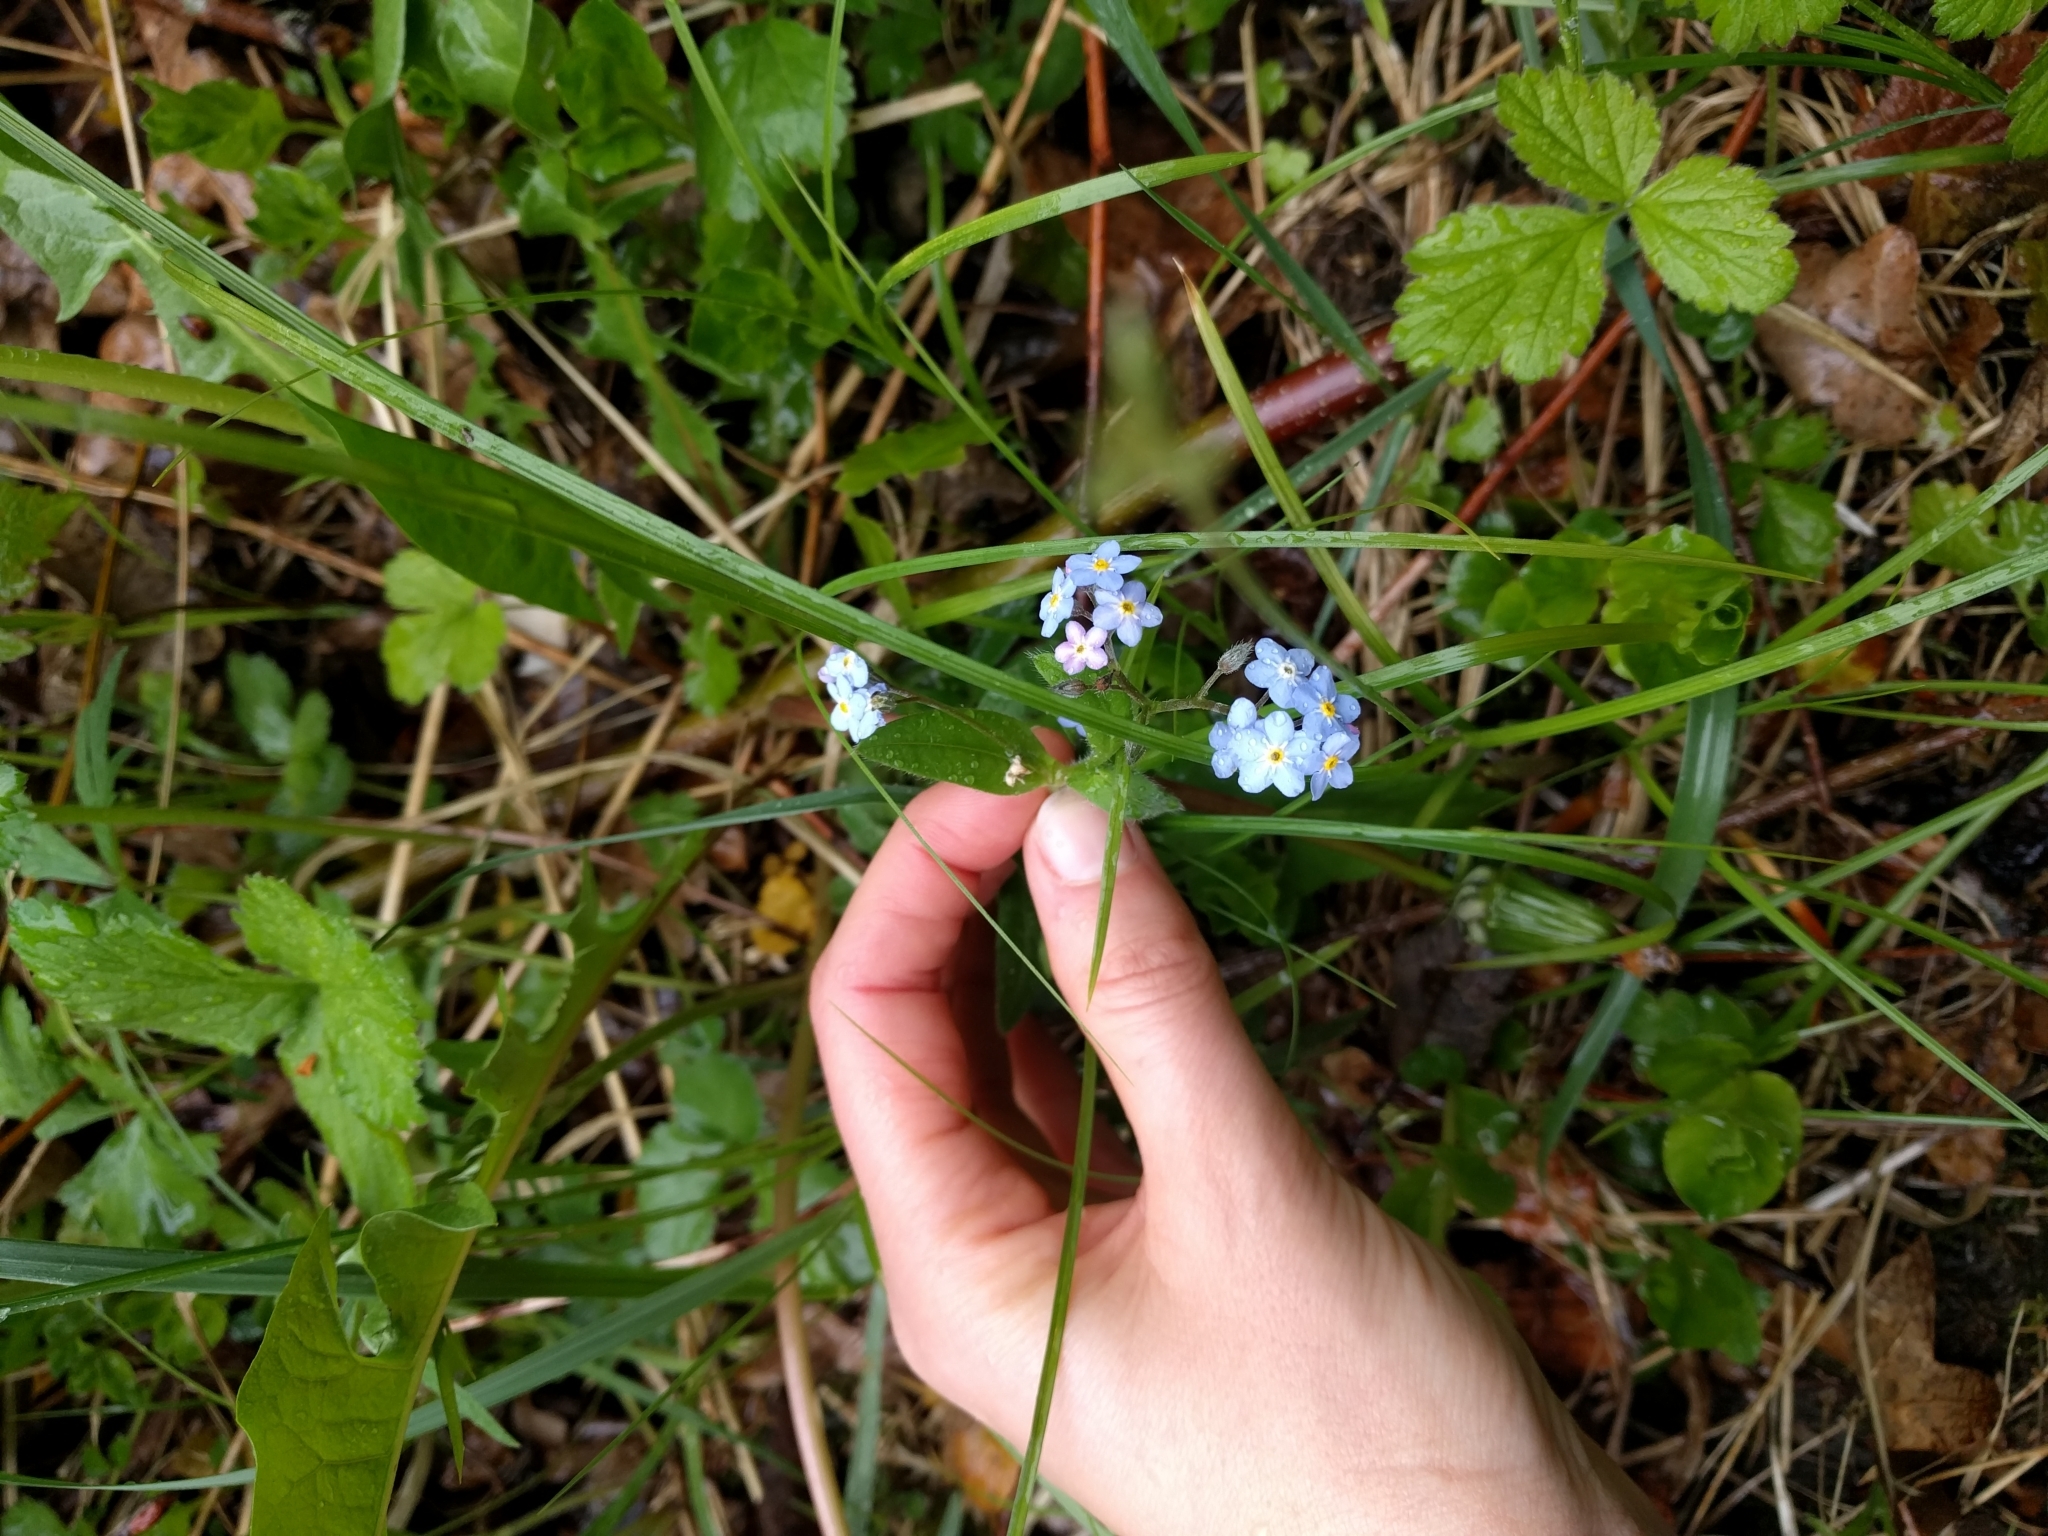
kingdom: Plantae
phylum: Tracheophyta
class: Magnoliopsida
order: Boraginales
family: Boraginaceae
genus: Myosotis
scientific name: Myosotis sylvatica
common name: Wood forget-me-not
